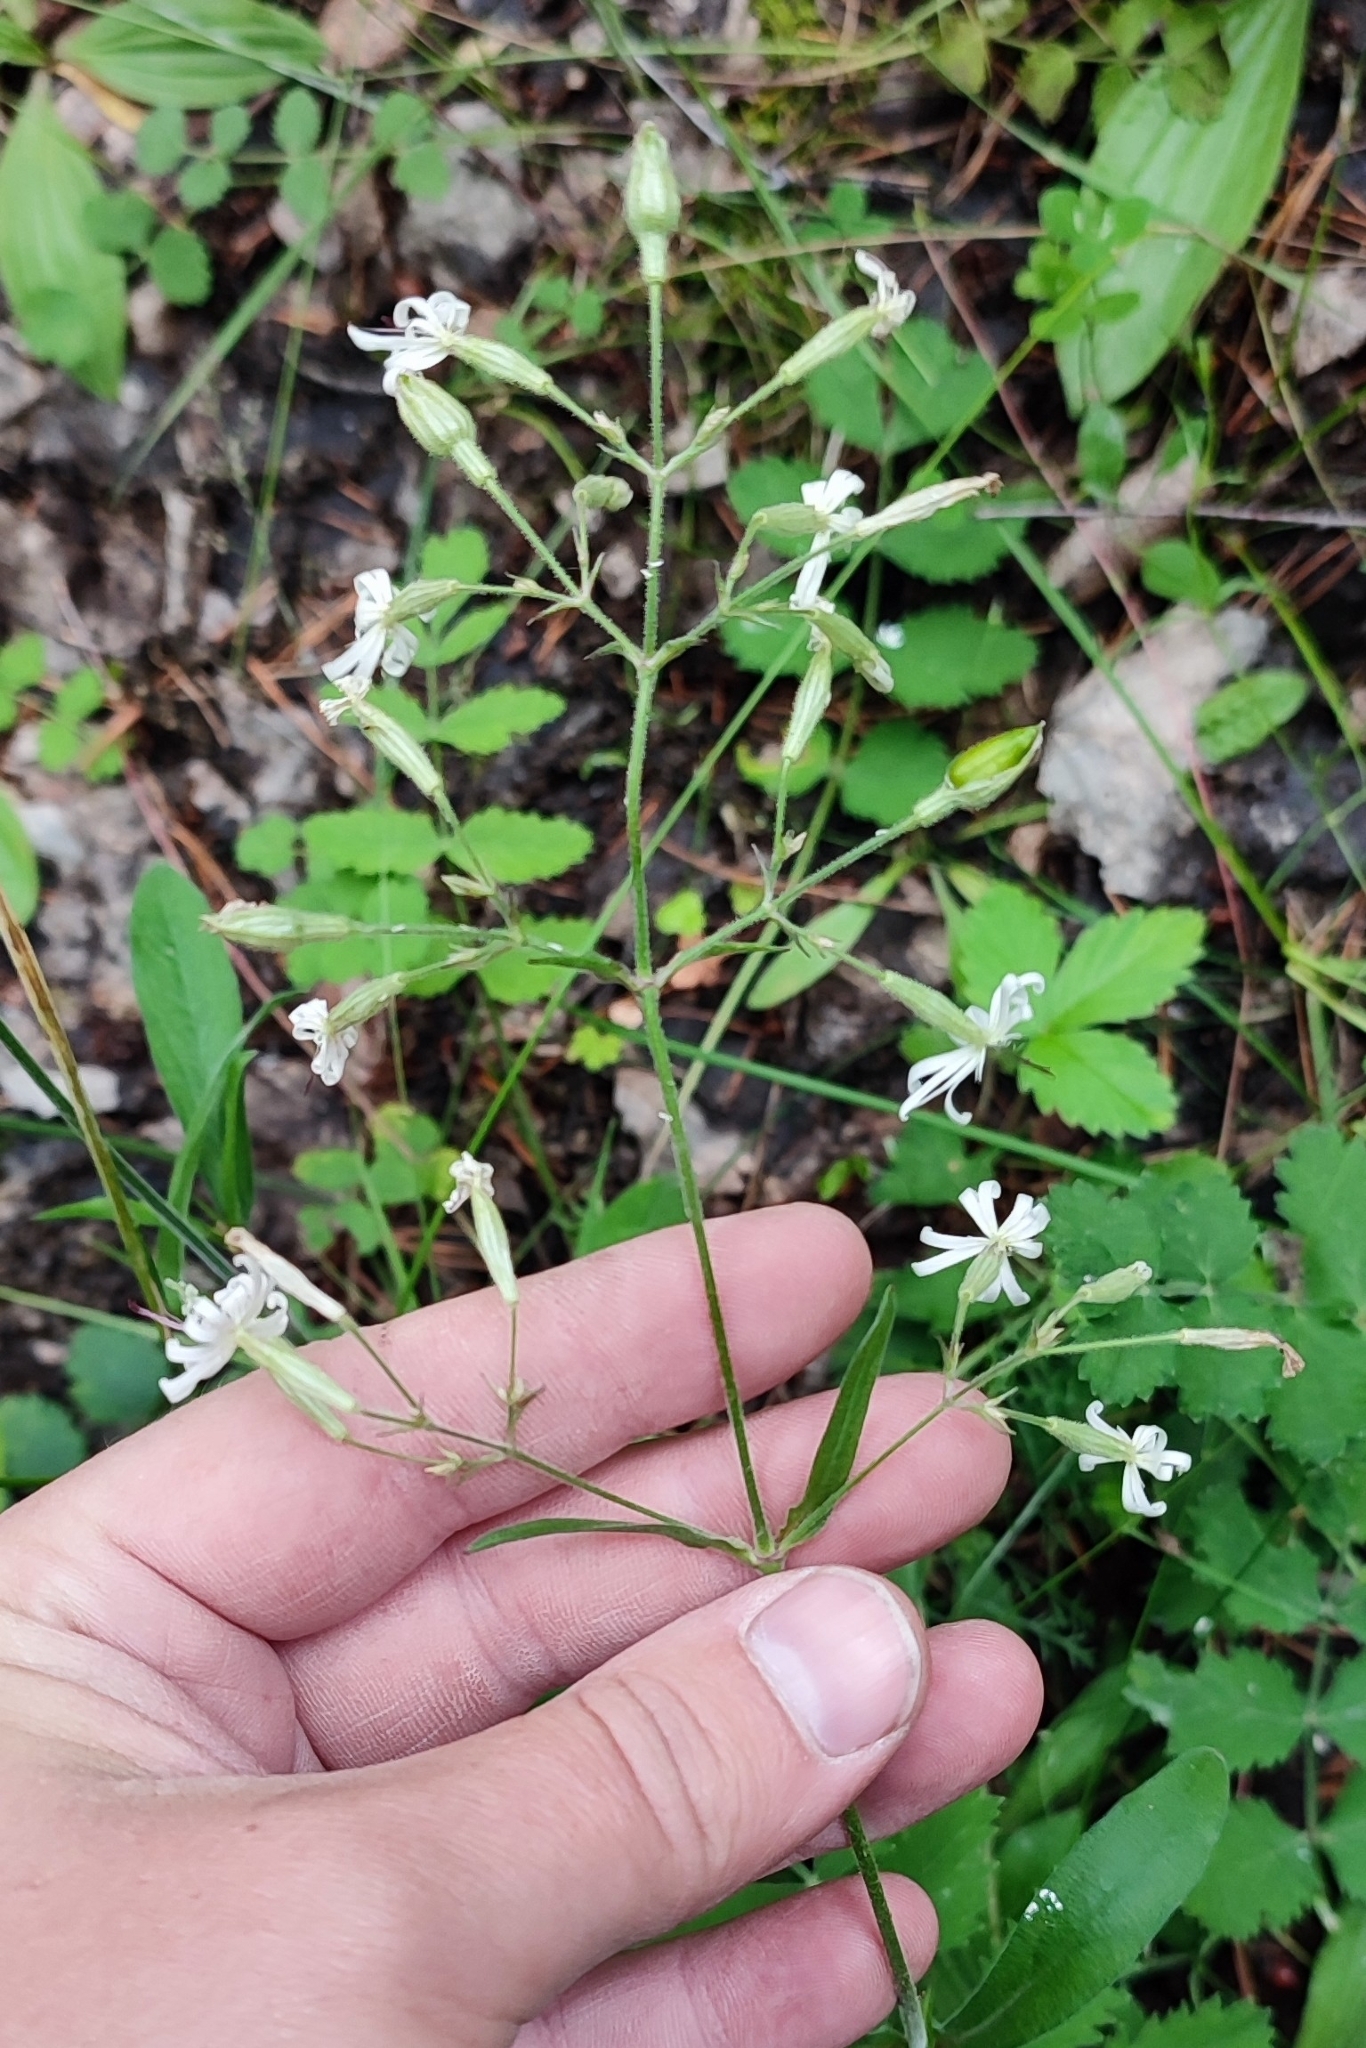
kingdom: Plantae
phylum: Tracheophyta
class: Magnoliopsida
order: Caryophyllales
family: Caryophyllaceae
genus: Silene
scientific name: Silene nutans
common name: Nottingham catchfly
